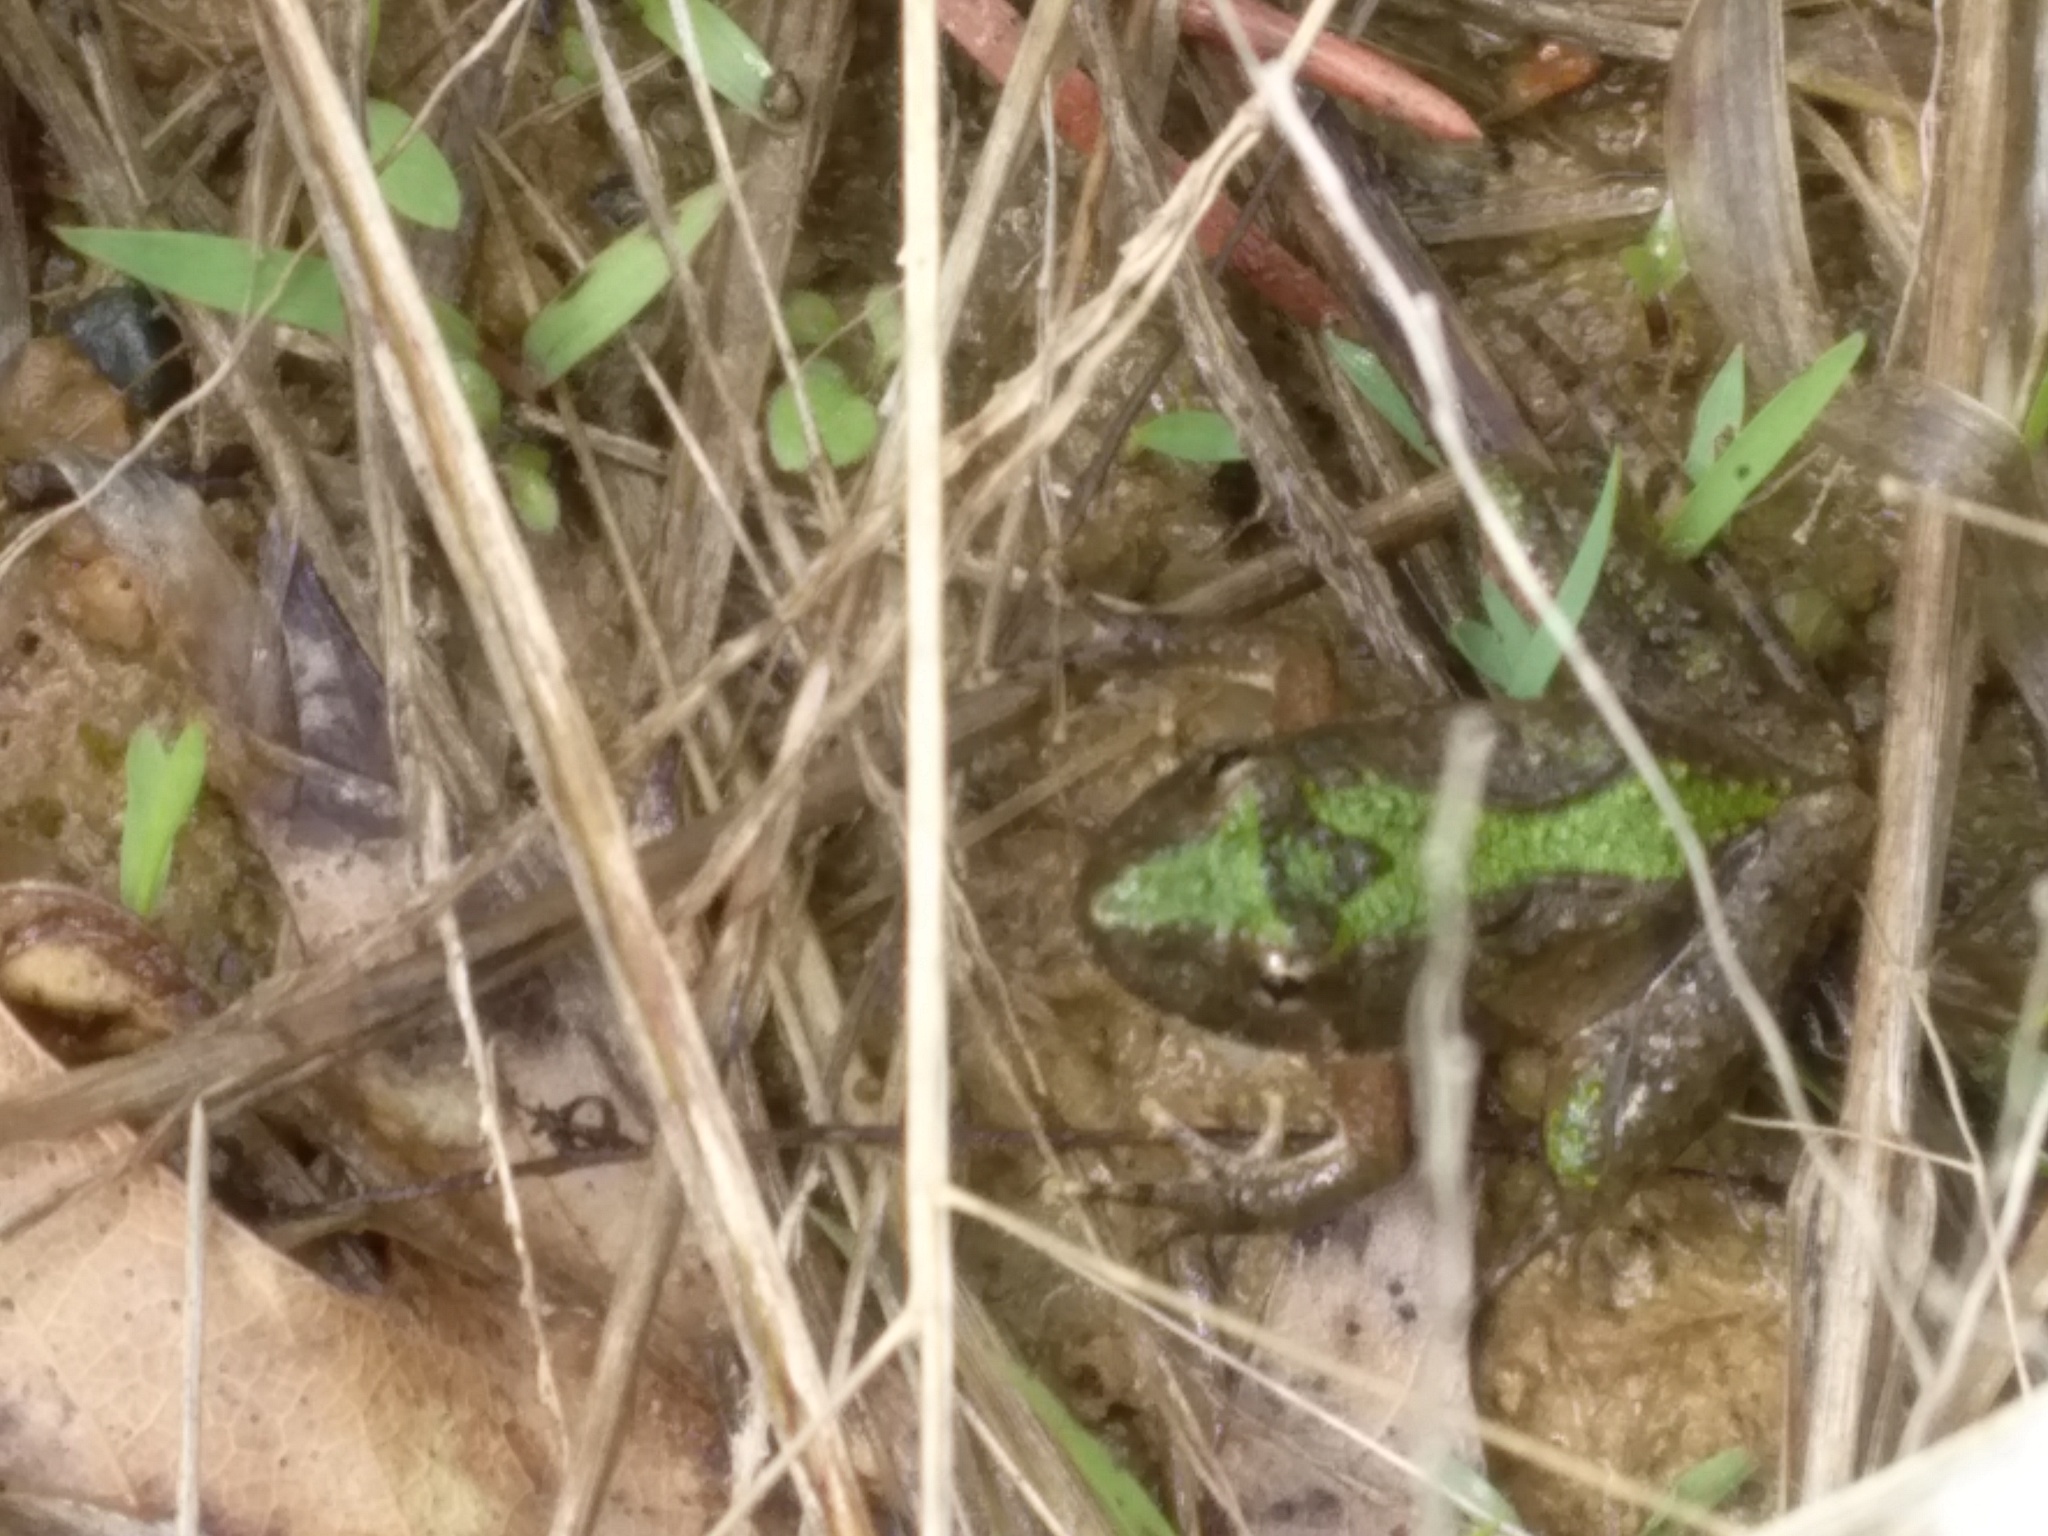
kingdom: Animalia
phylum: Chordata
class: Amphibia
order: Anura
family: Hylidae
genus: Acris
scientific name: Acris crepitans
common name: Northern cricket frog
